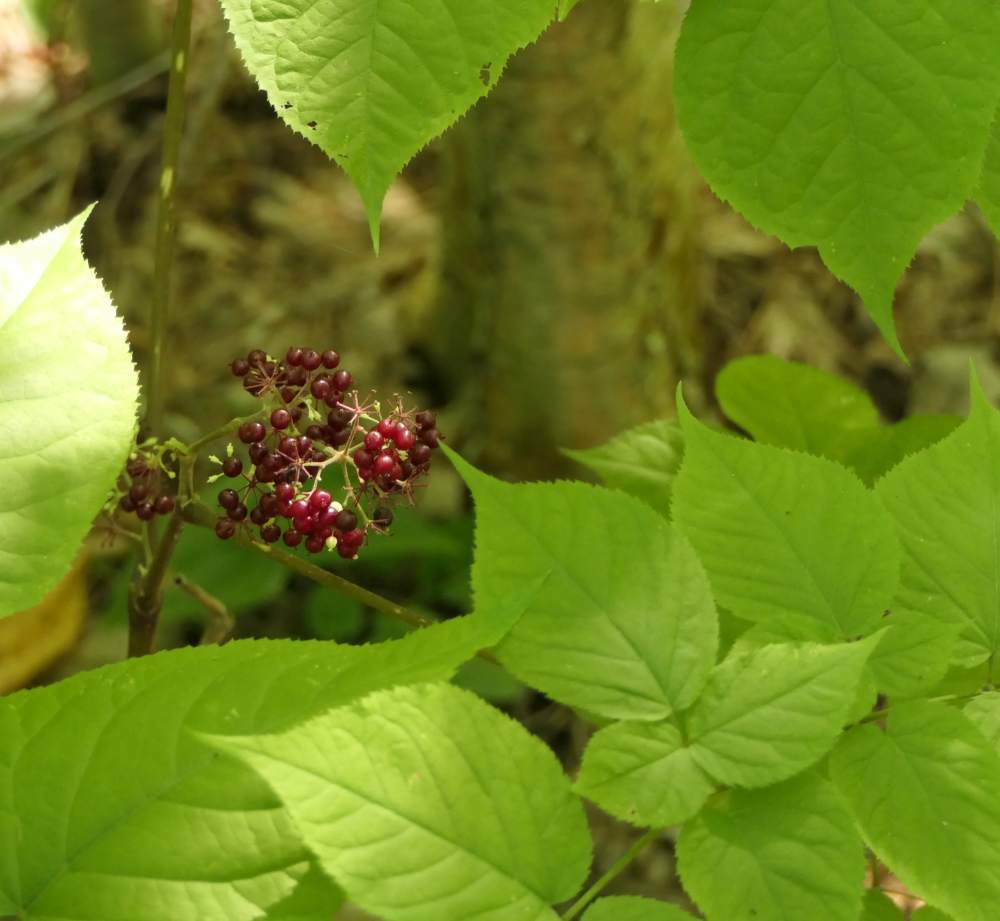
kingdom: Plantae
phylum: Tracheophyta
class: Magnoliopsida
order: Apiales
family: Araliaceae
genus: Aralia
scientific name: Aralia racemosa
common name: American-spikenard
